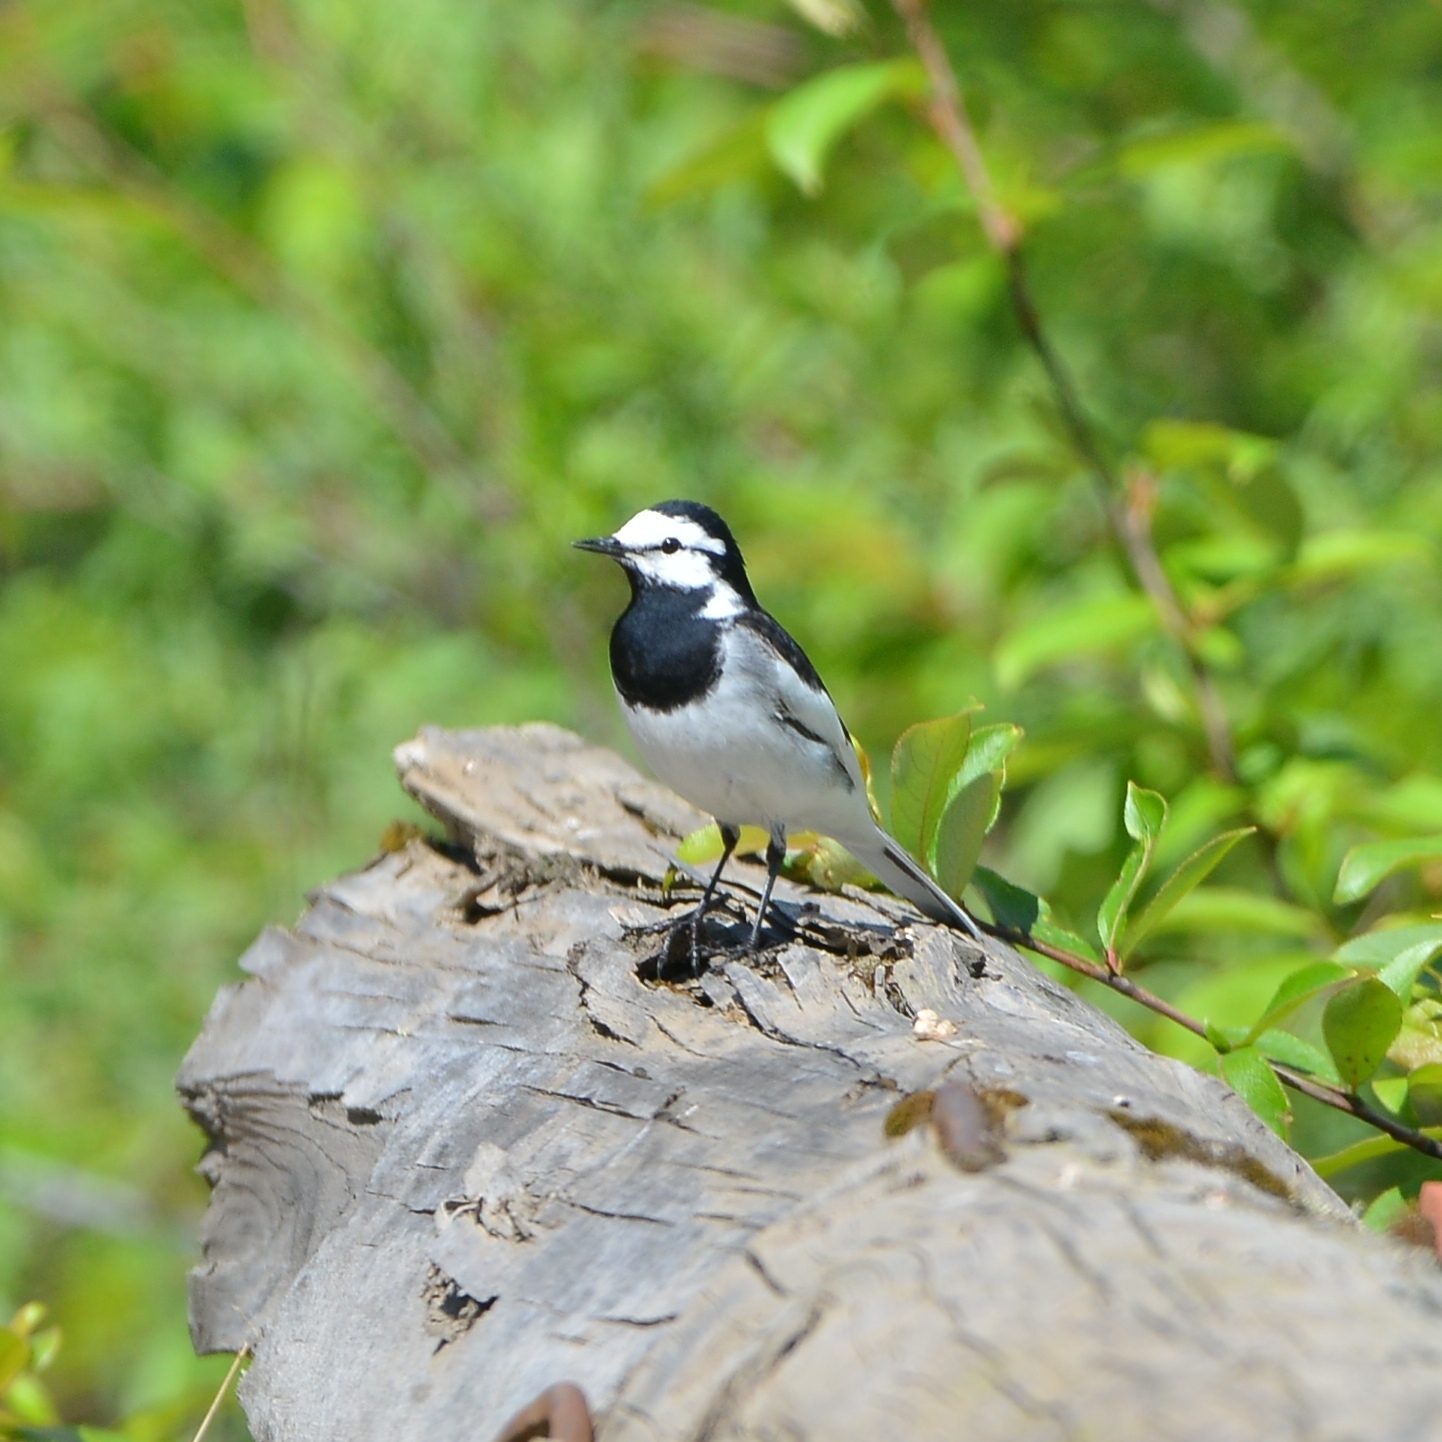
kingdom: Animalia
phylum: Chordata
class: Aves
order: Passeriformes
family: Motacillidae
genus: Motacilla
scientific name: Motacilla alba
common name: White wagtail
